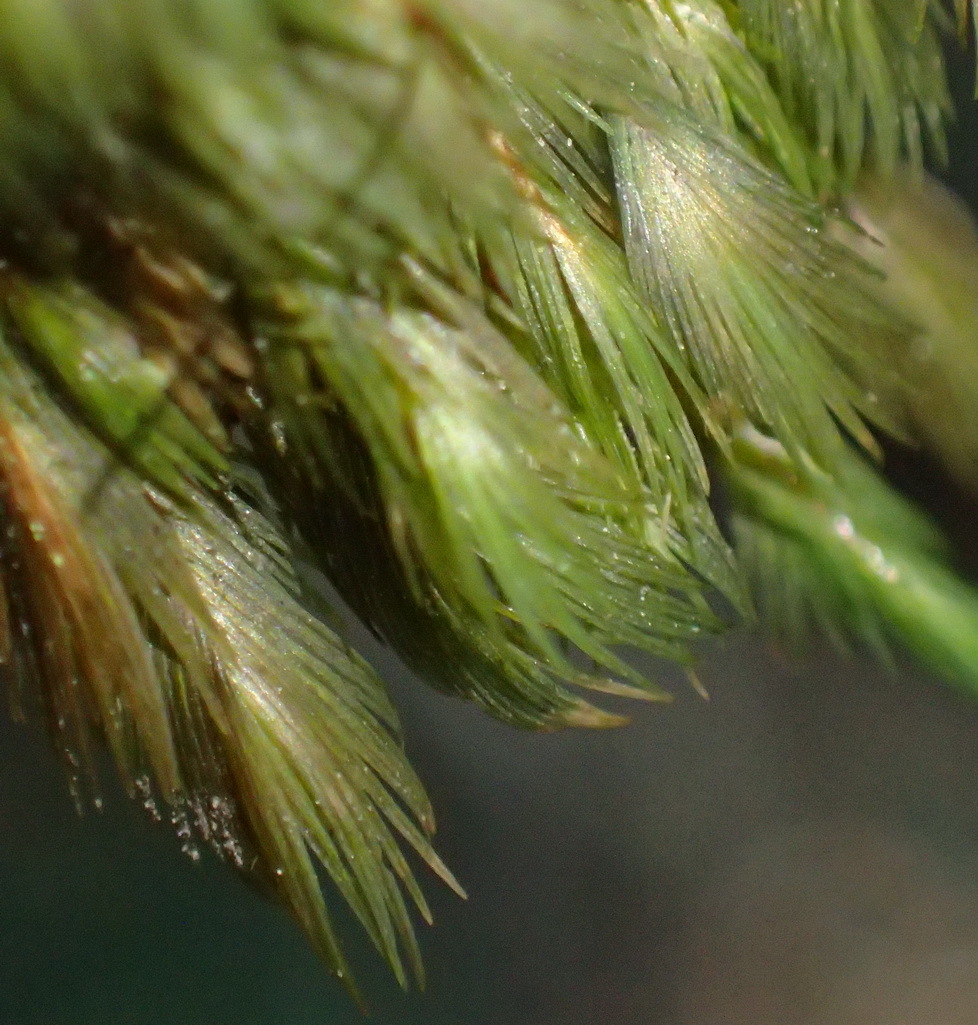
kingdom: Plantae
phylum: Bryophyta
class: Bryopsida
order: Dicranales
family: Fissidentaceae
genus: Fissidens
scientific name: Fissidens plumosus
